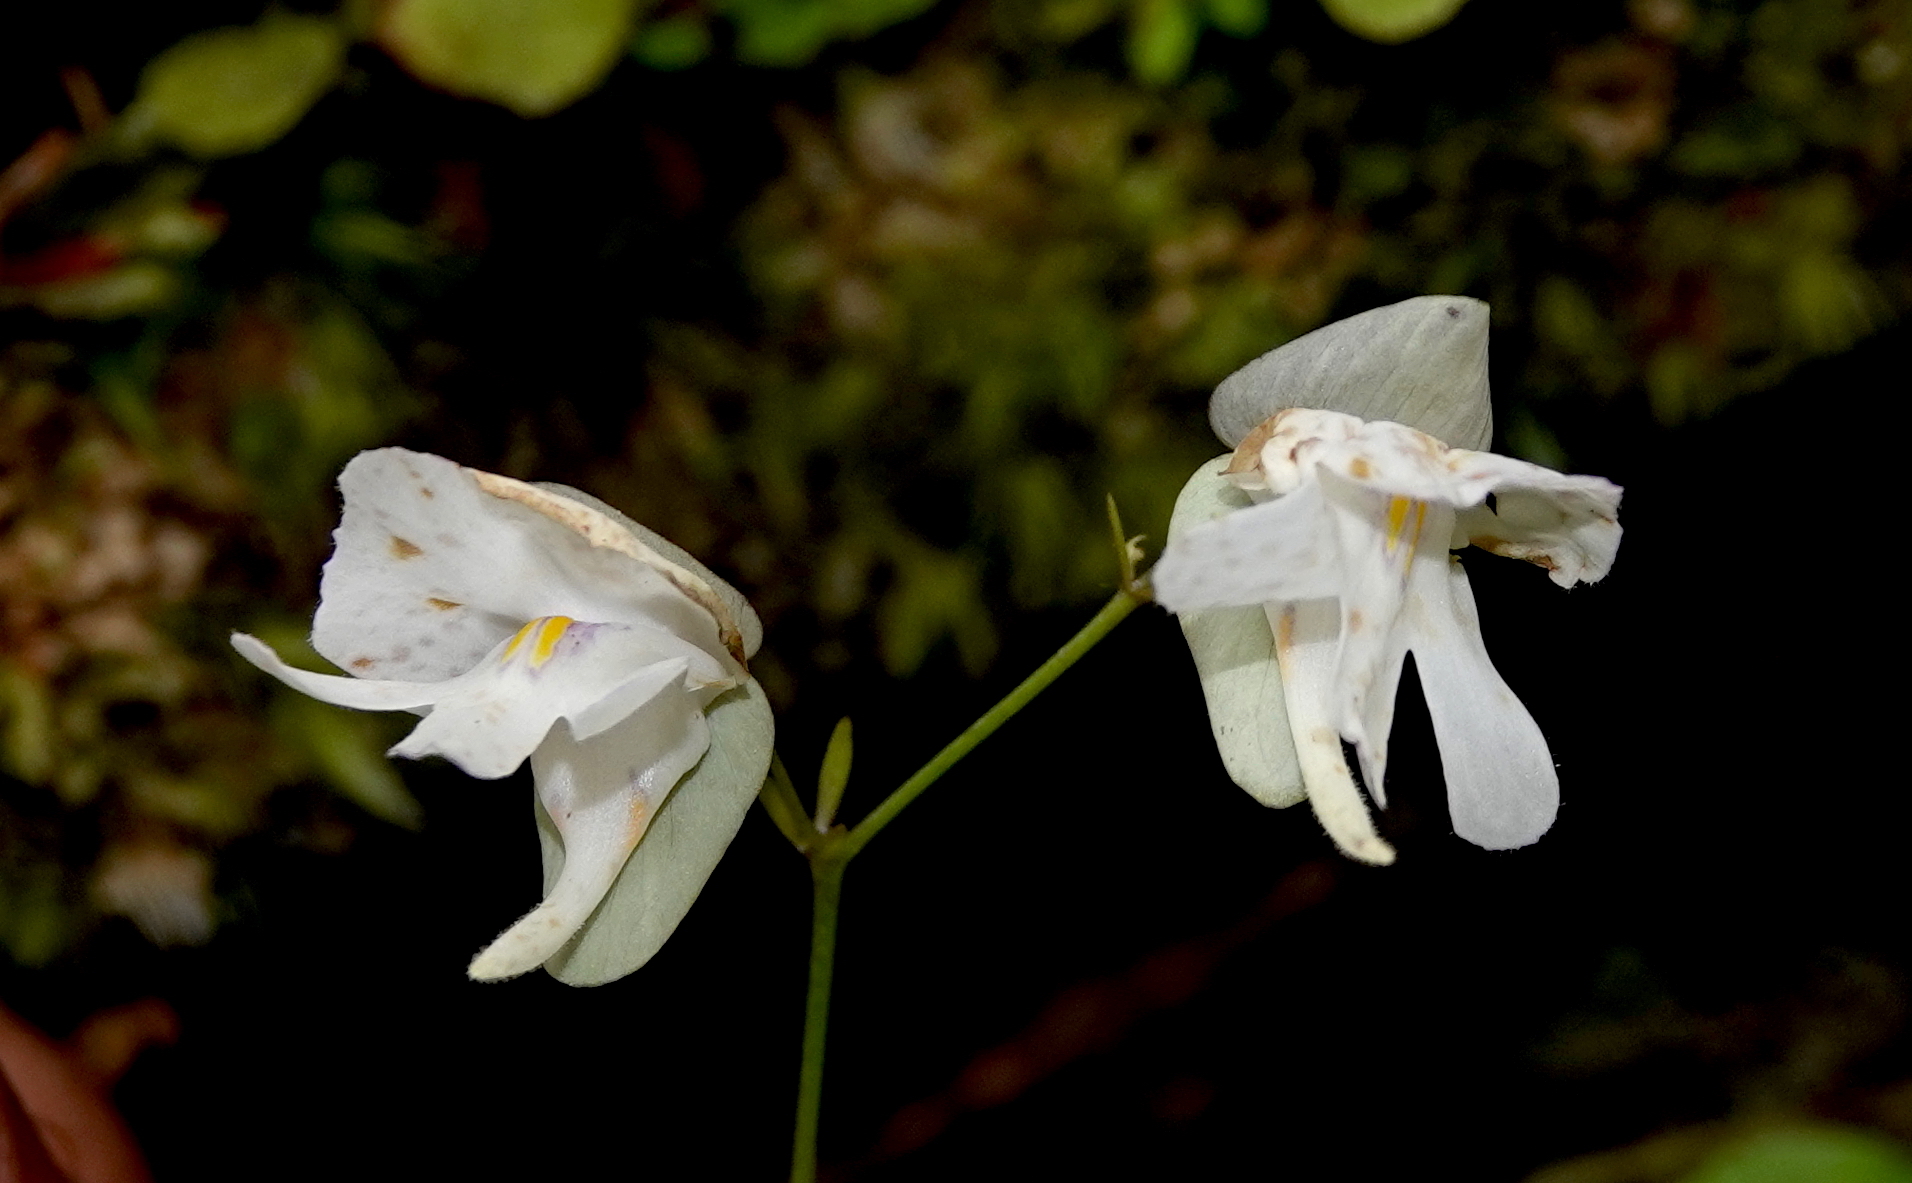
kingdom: Plantae
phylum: Tracheophyta
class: Magnoliopsida
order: Lamiales
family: Lentibulariaceae
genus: Utricularia
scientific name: Utricularia asplundii
